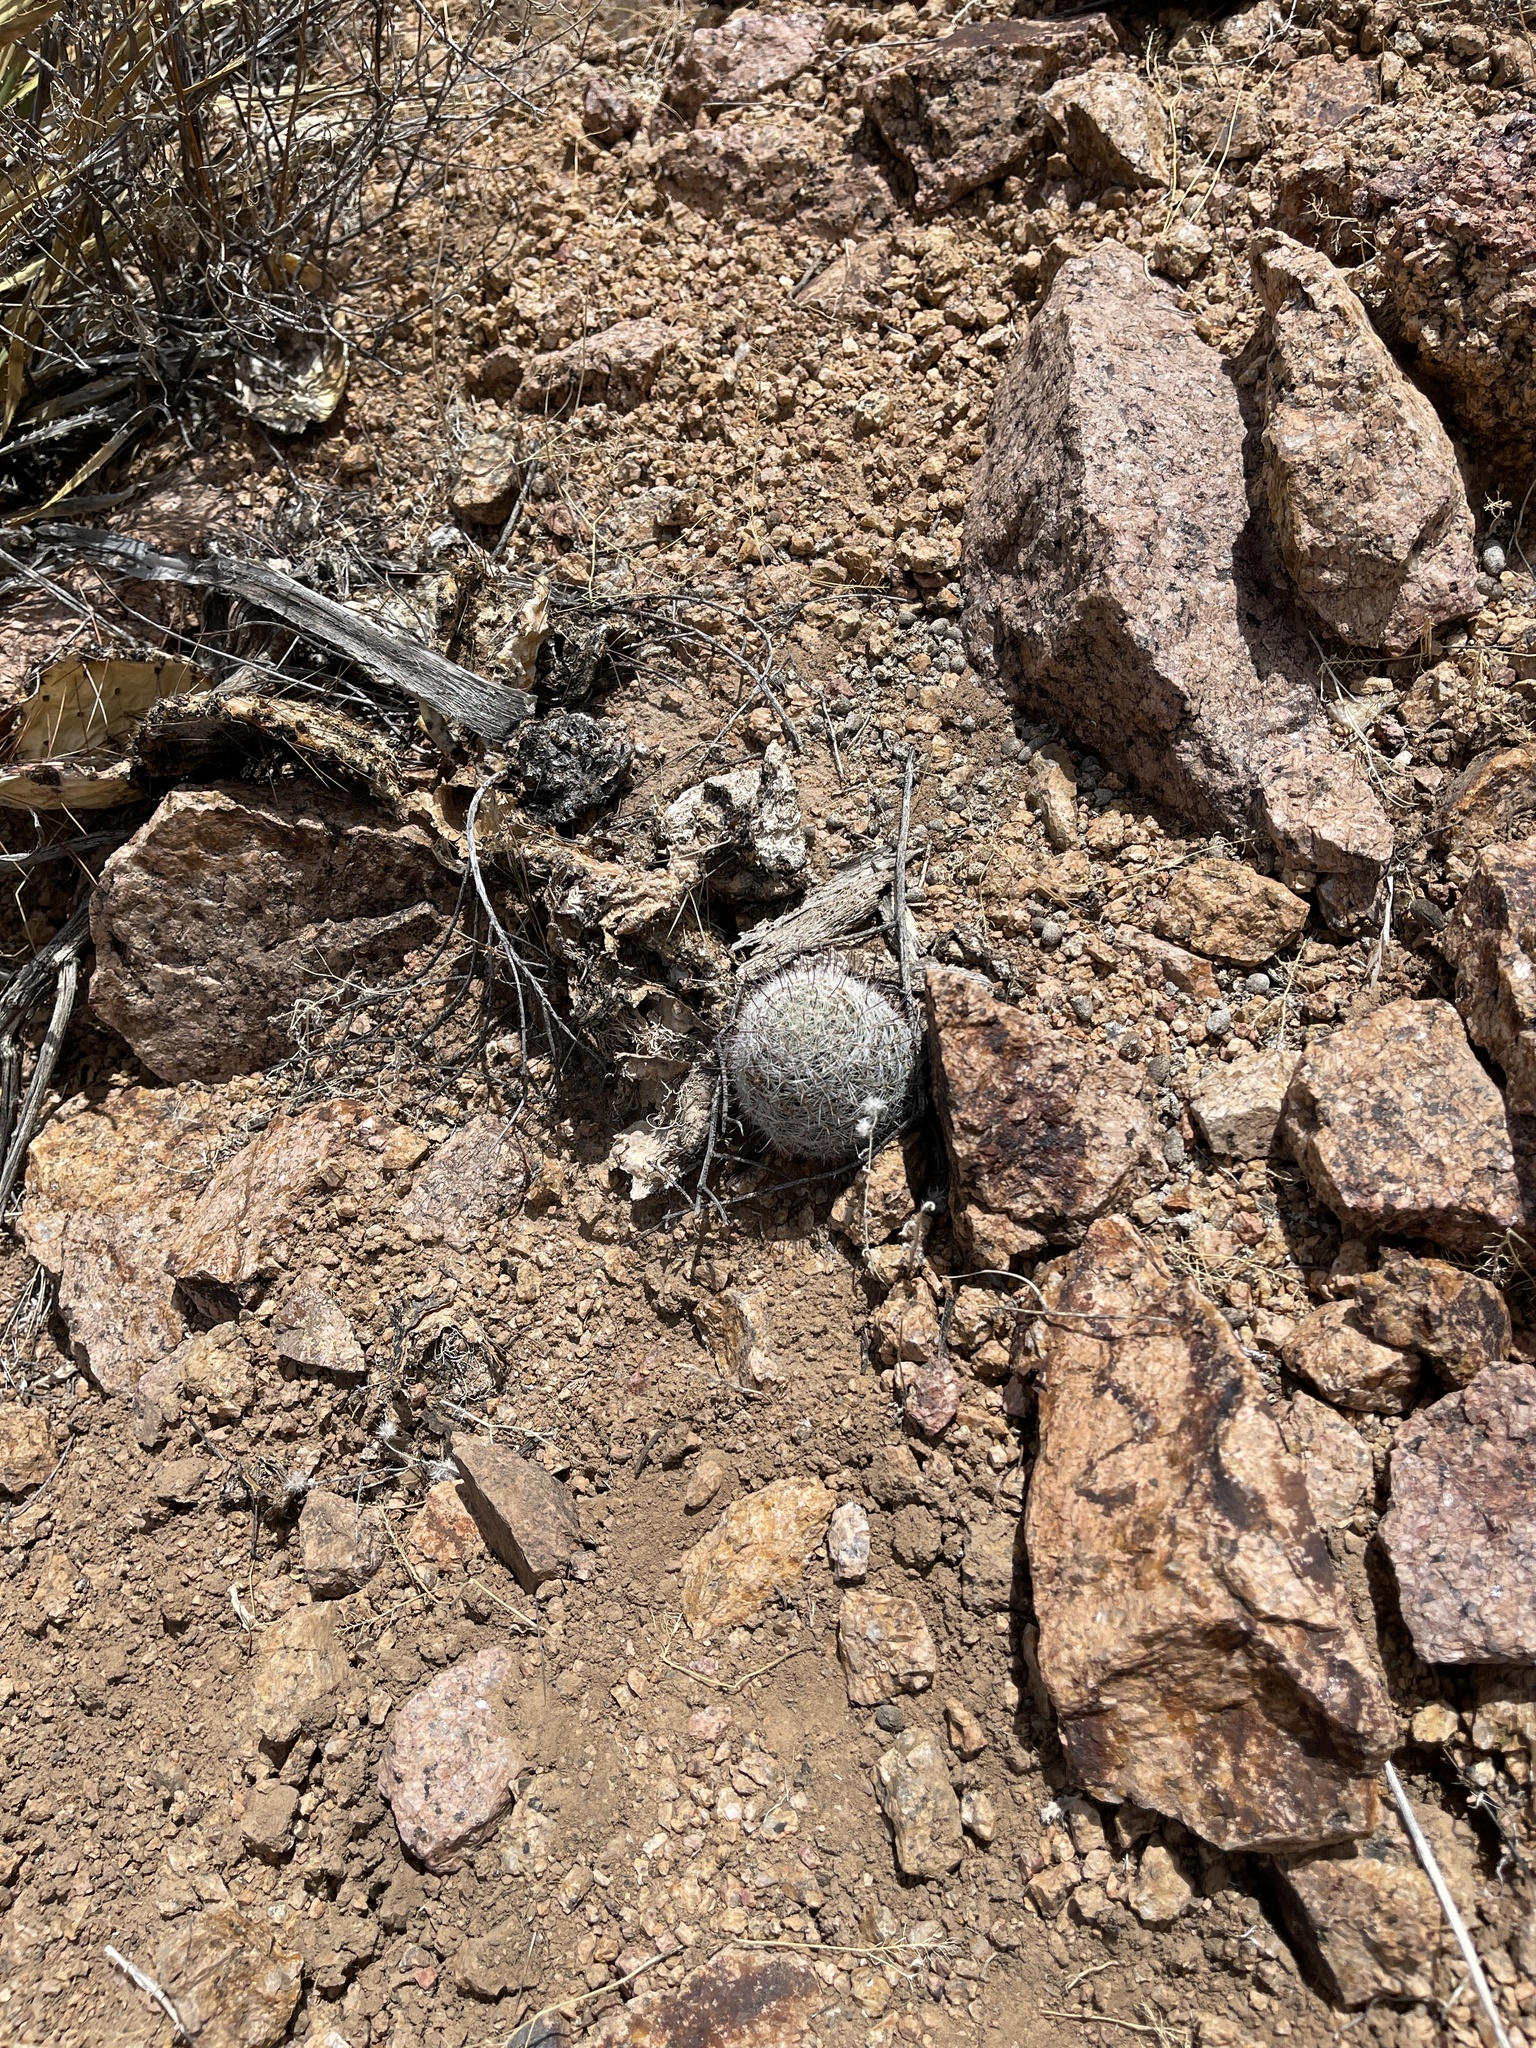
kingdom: Plantae
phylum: Tracheophyta
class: Magnoliopsida
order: Caryophyllales
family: Cactaceae
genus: Cochemiea
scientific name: Cochemiea grahamii
